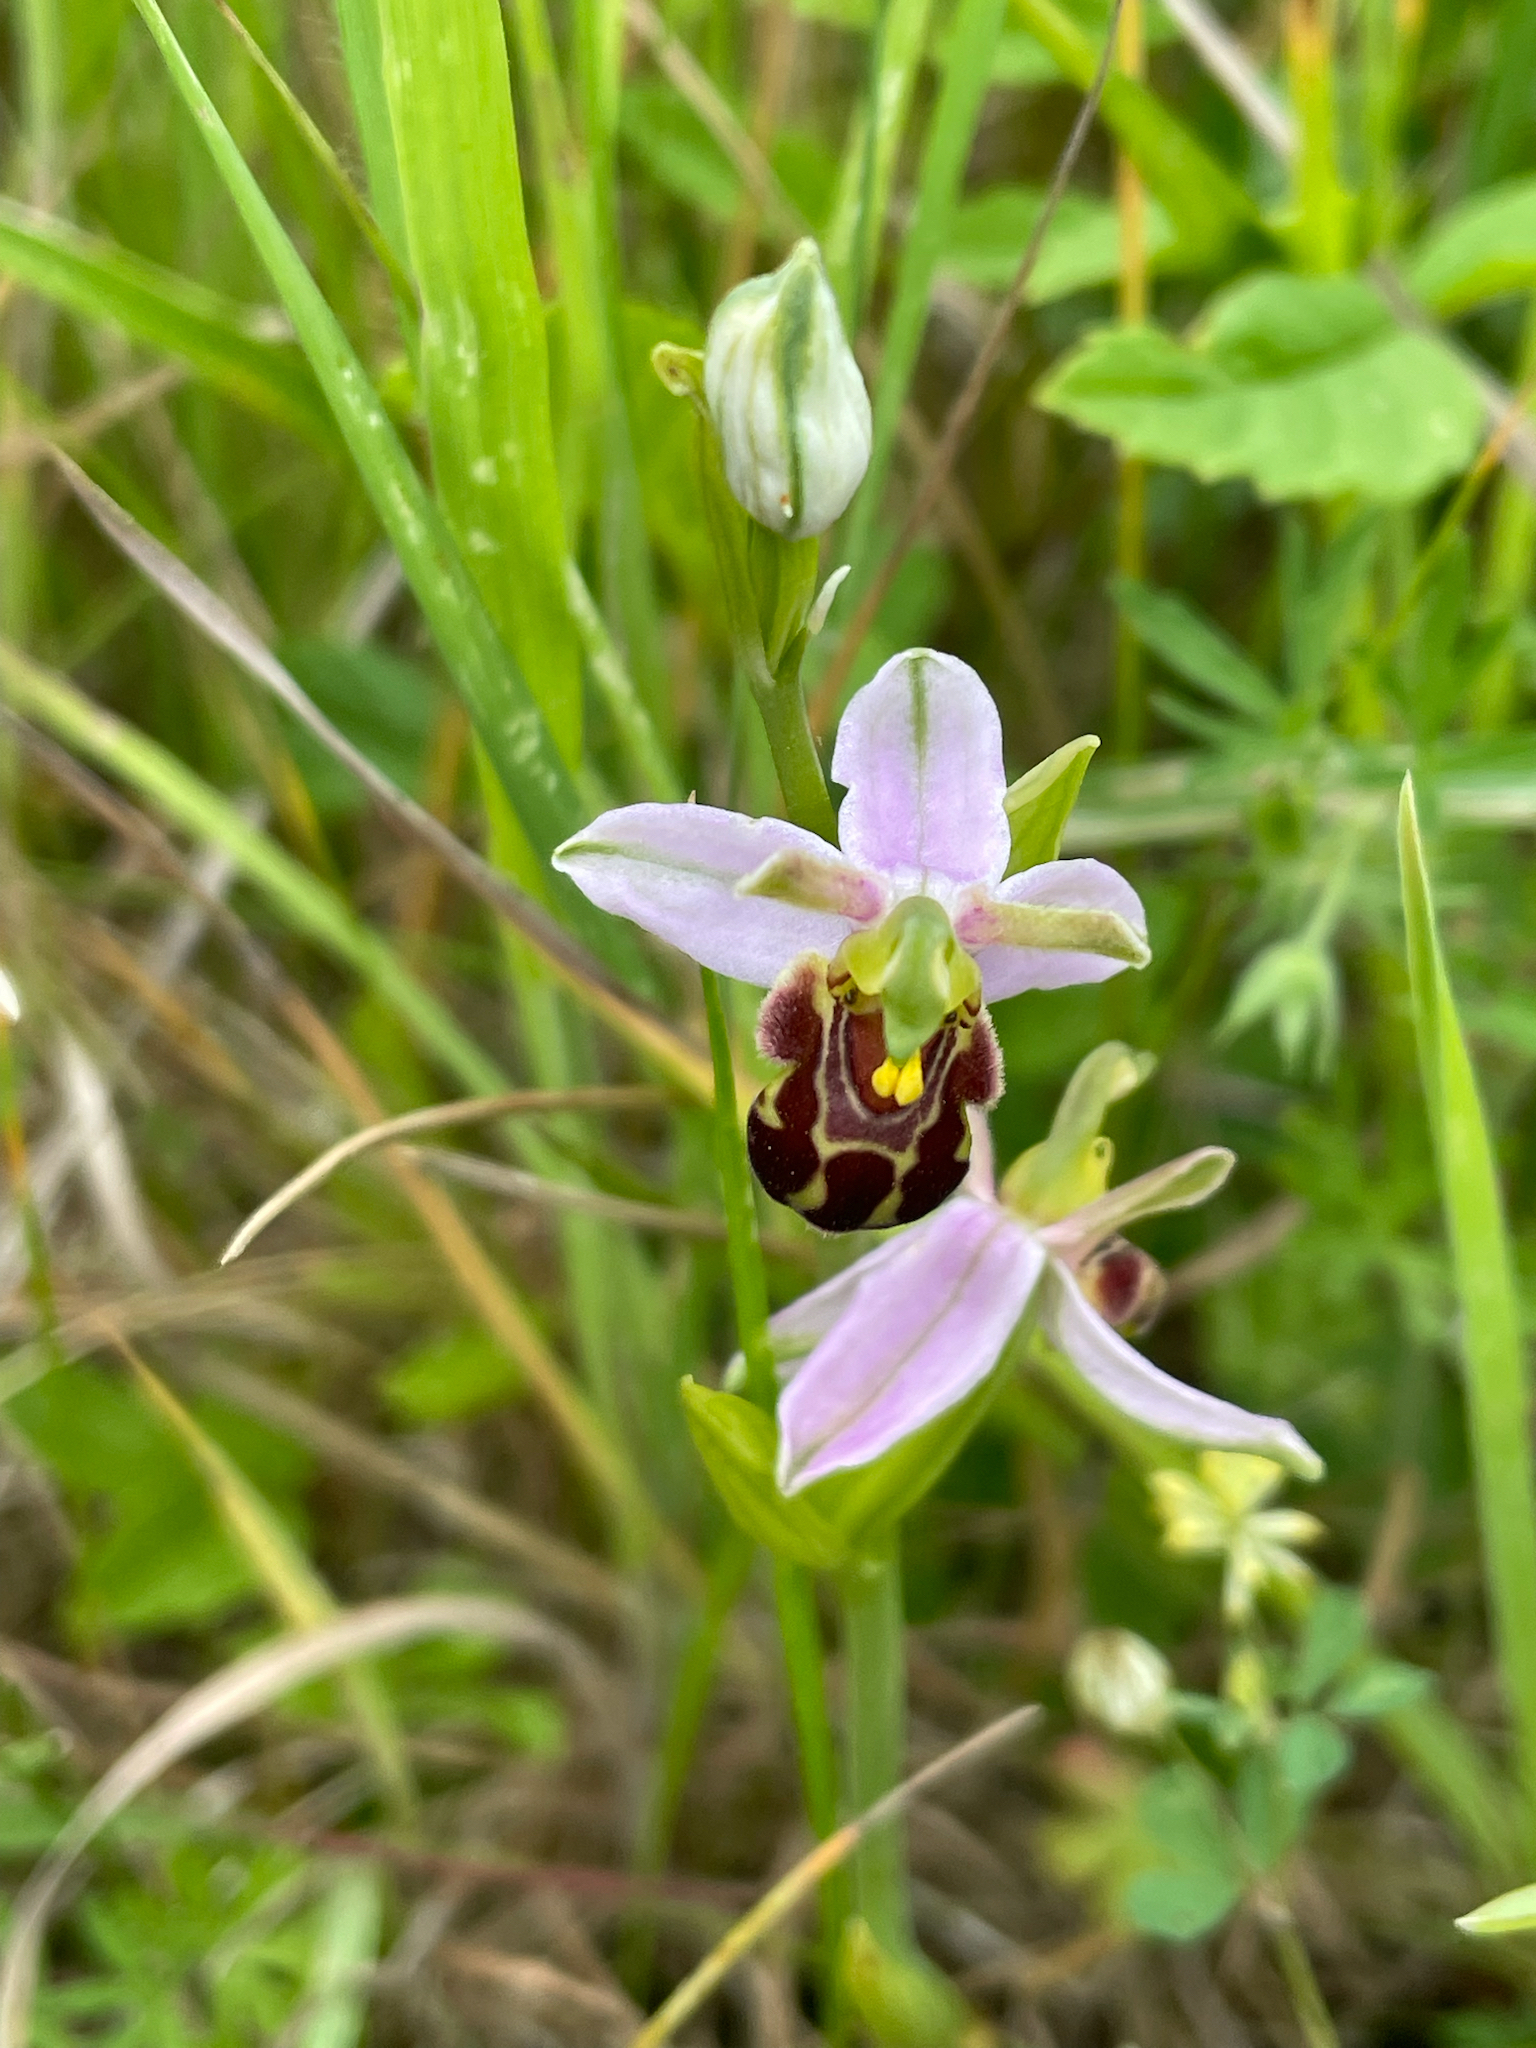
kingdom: Plantae
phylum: Tracheophyta
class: Liliopsida
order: Asparagales
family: Orchidaceae
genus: Ophrys
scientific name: Ophrys apifera
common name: Bee orchid
